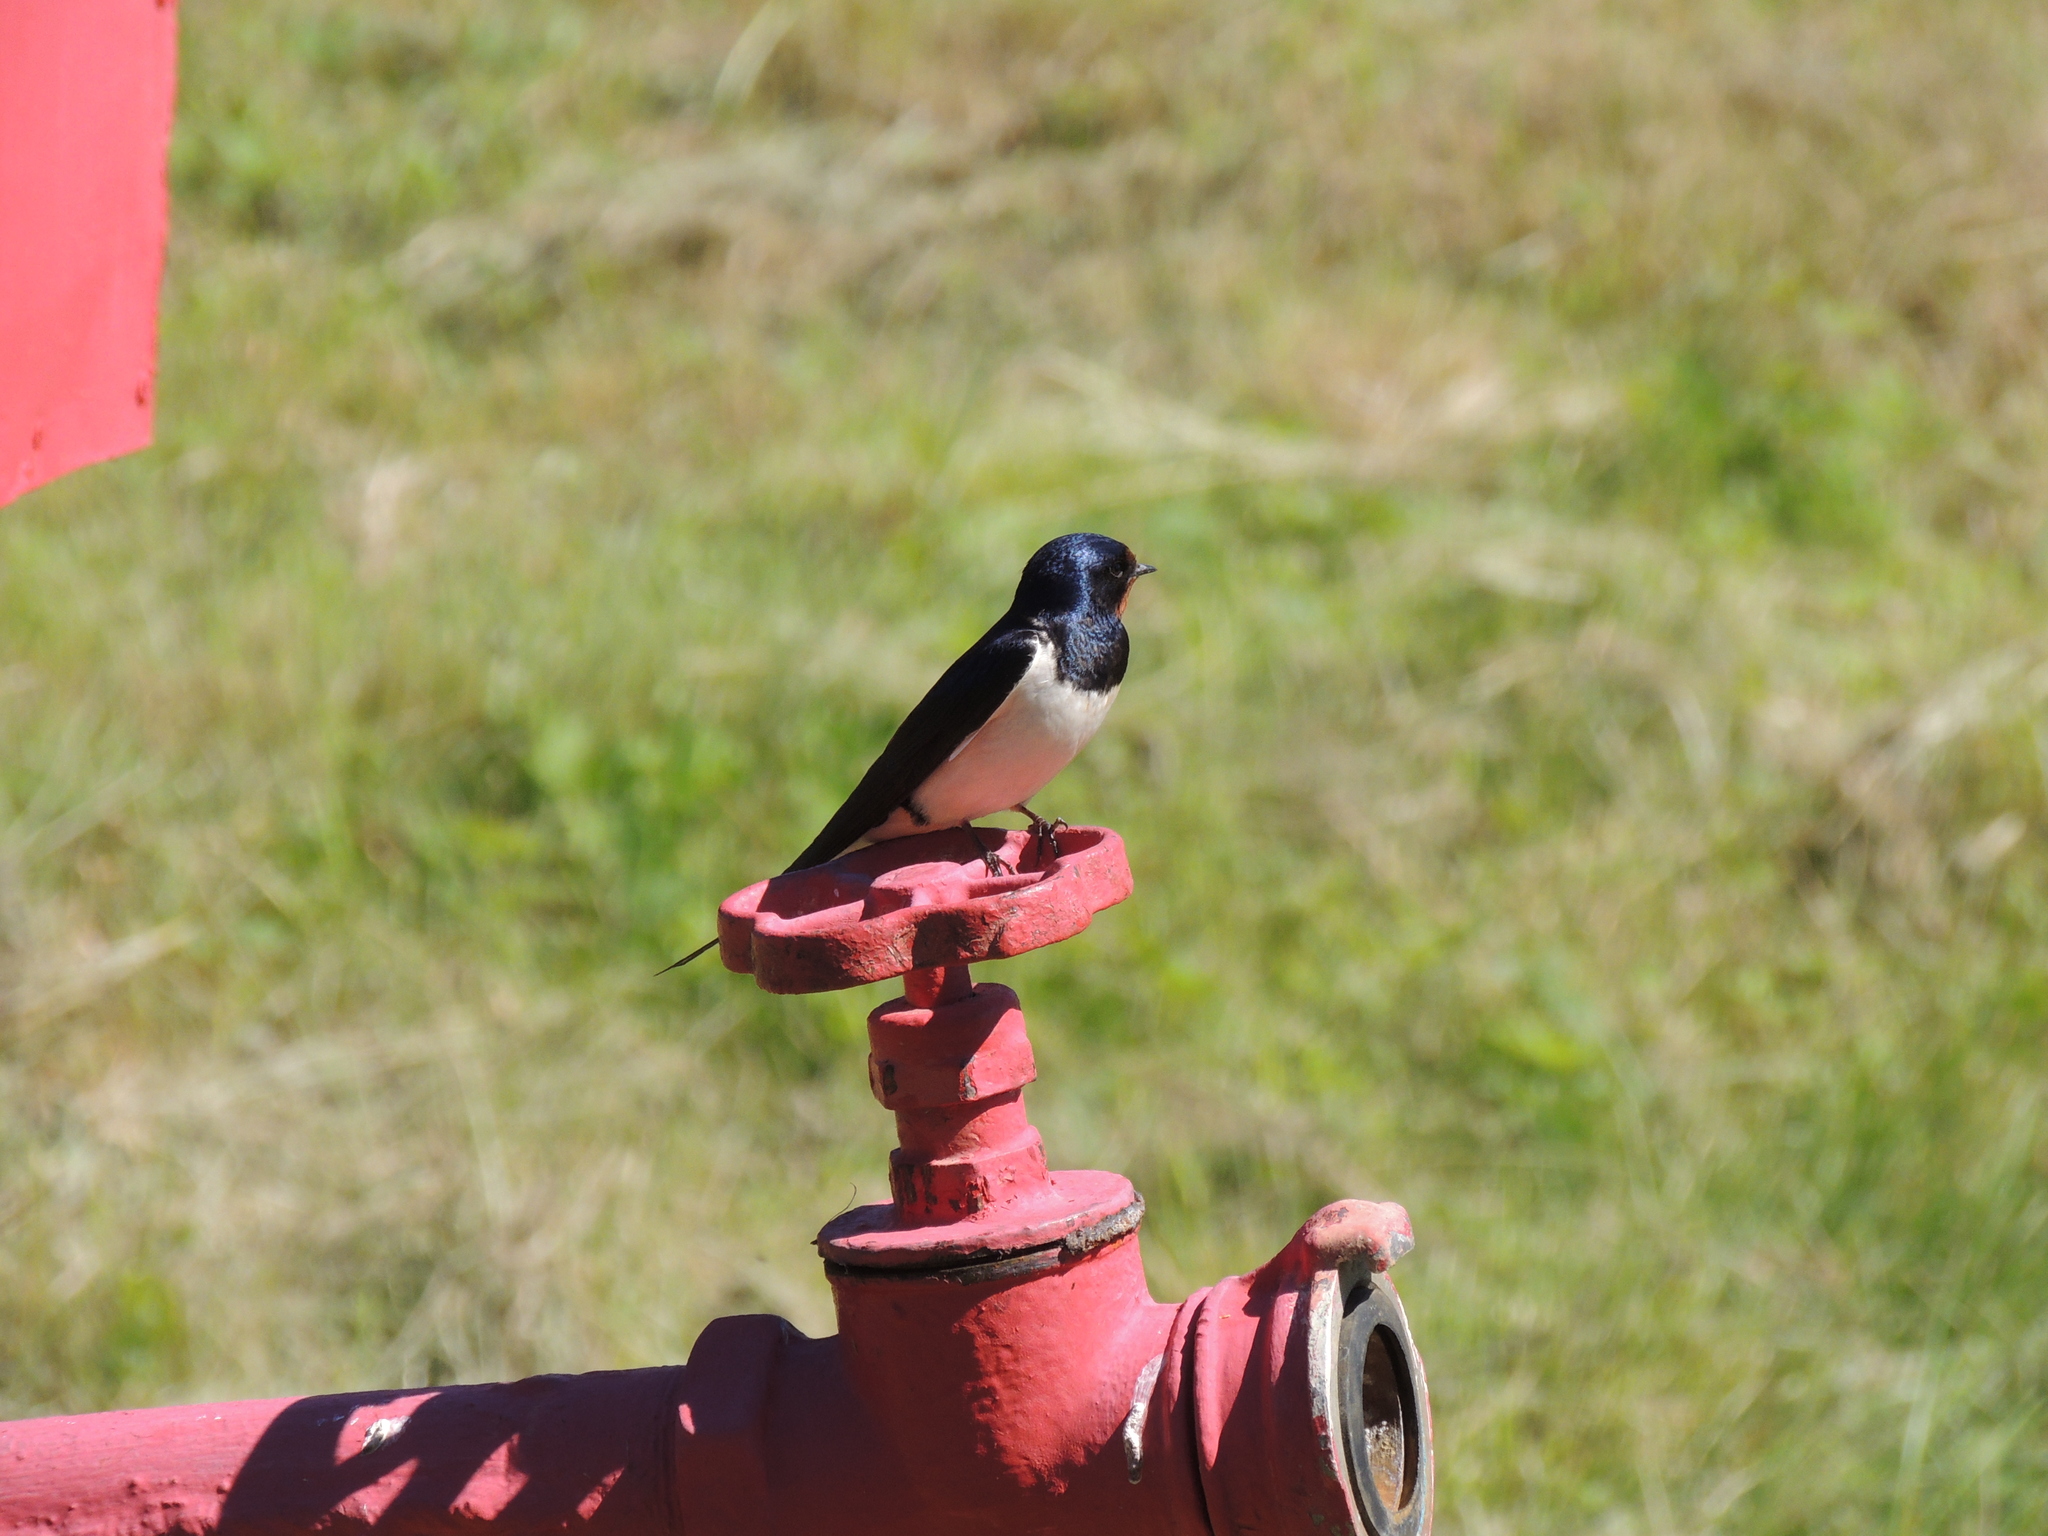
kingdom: Animalia
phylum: Chordata
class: Aves
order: Passeriformes
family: Hirundinidae
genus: Hirundo
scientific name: Hirundo rustica
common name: Barn swallow
